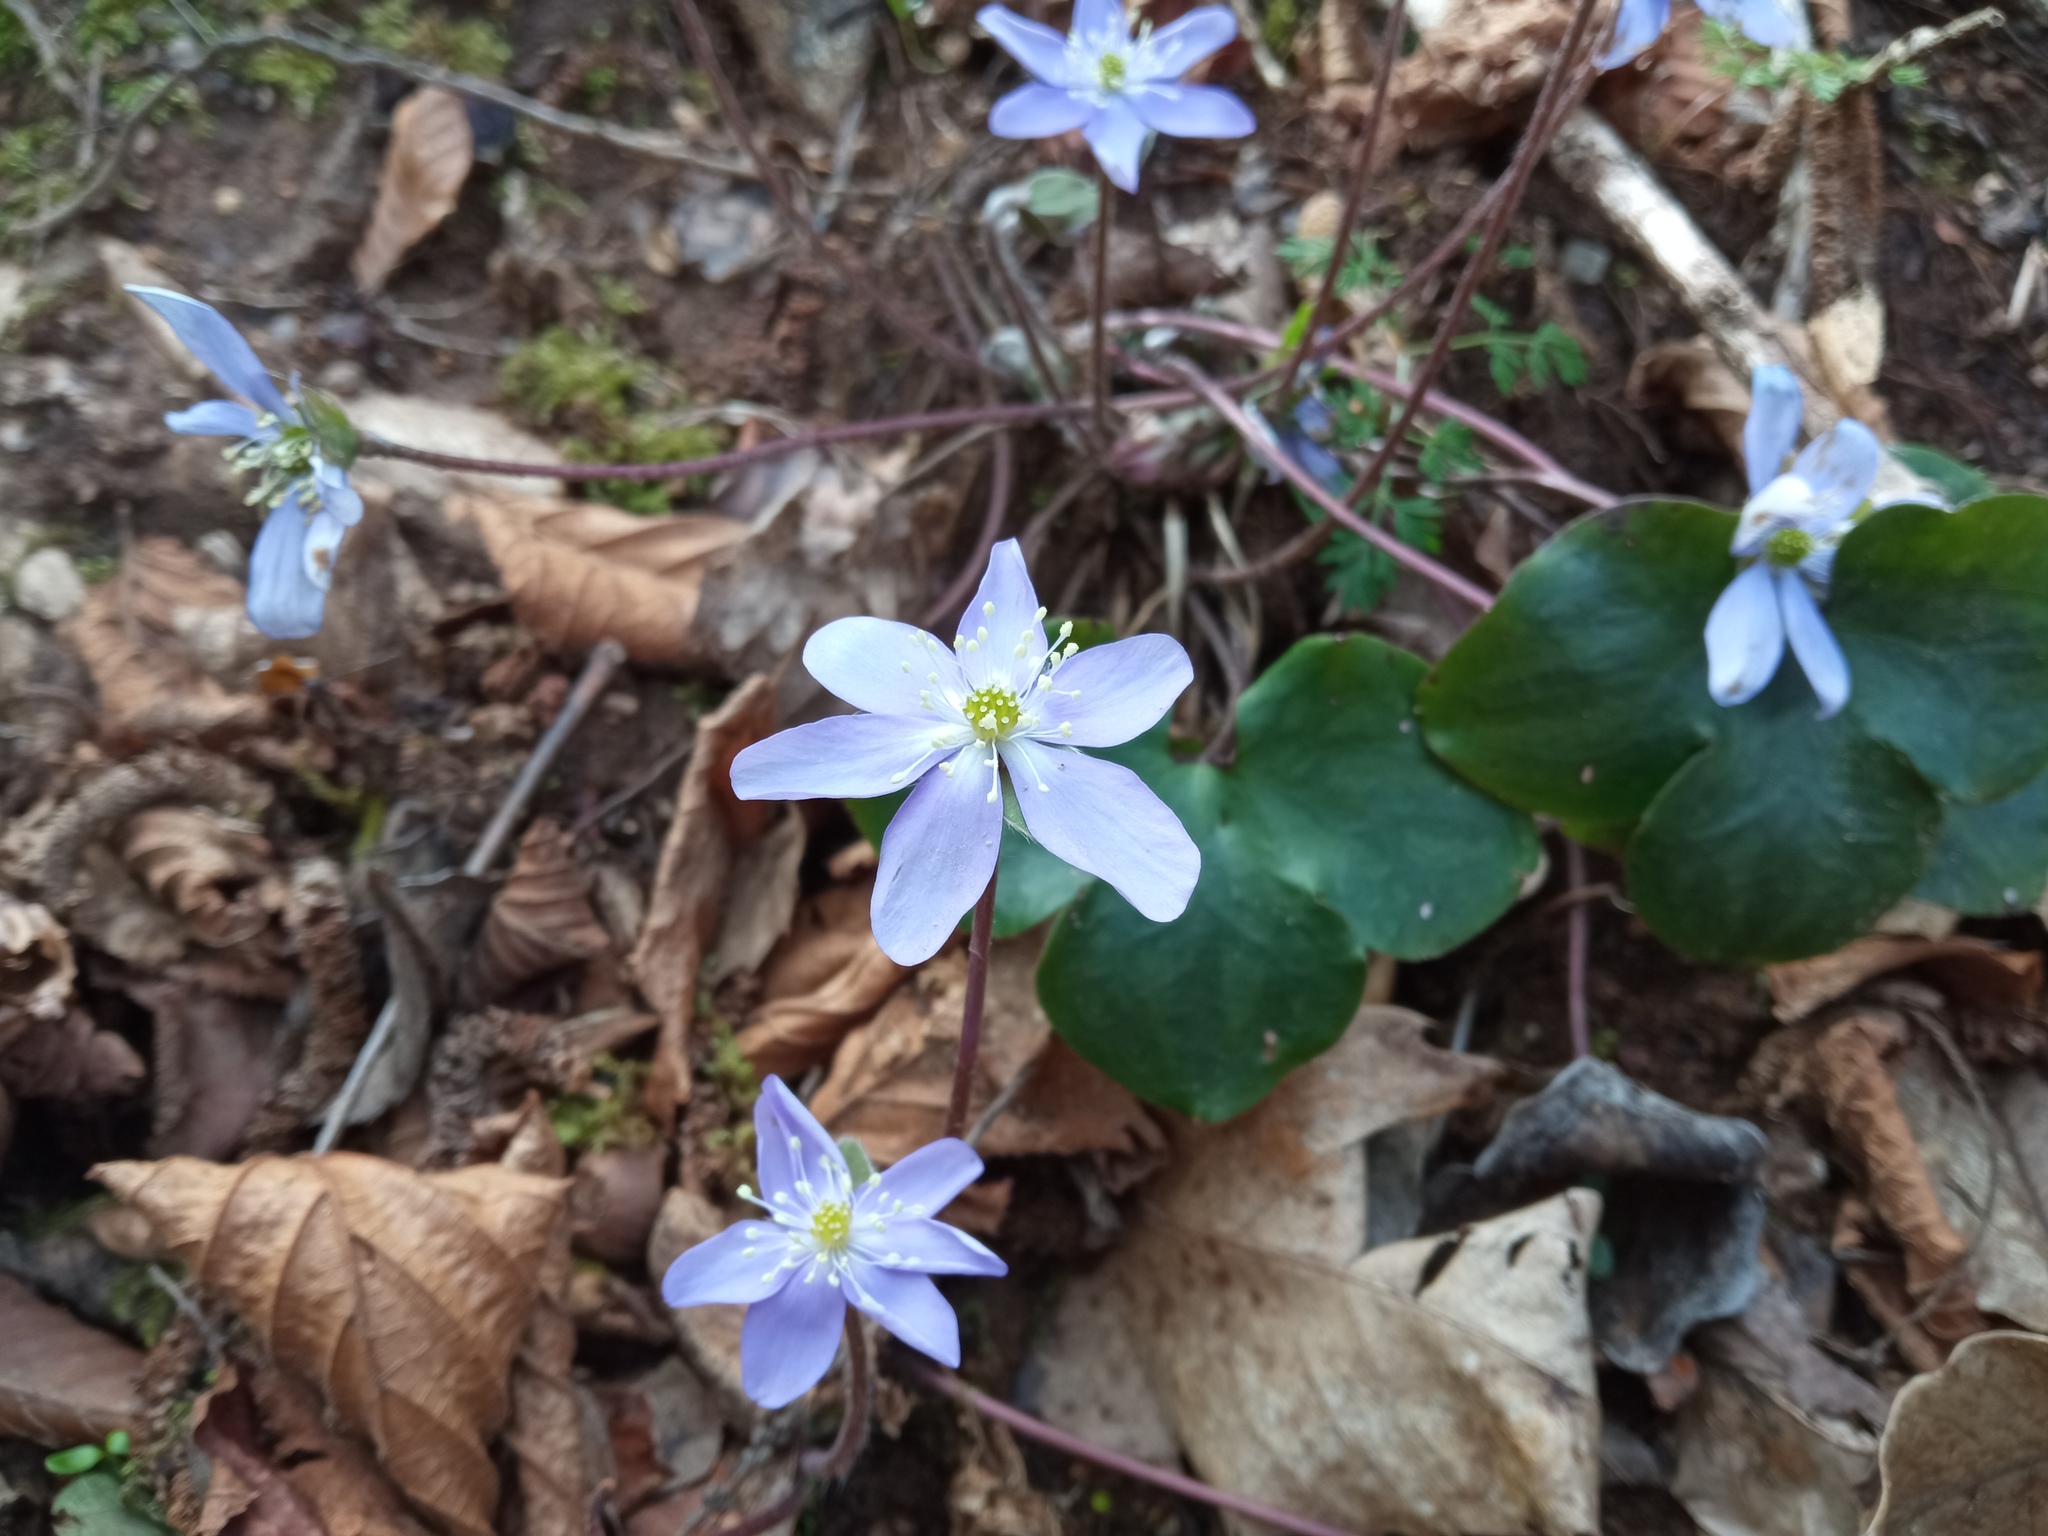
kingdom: Plantae
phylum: Tracheophyta
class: Magnoliopsida
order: Ranunculales
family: Ranunculaceae
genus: Hepatica
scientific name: Hepatica nobilis
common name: Liverleaf
